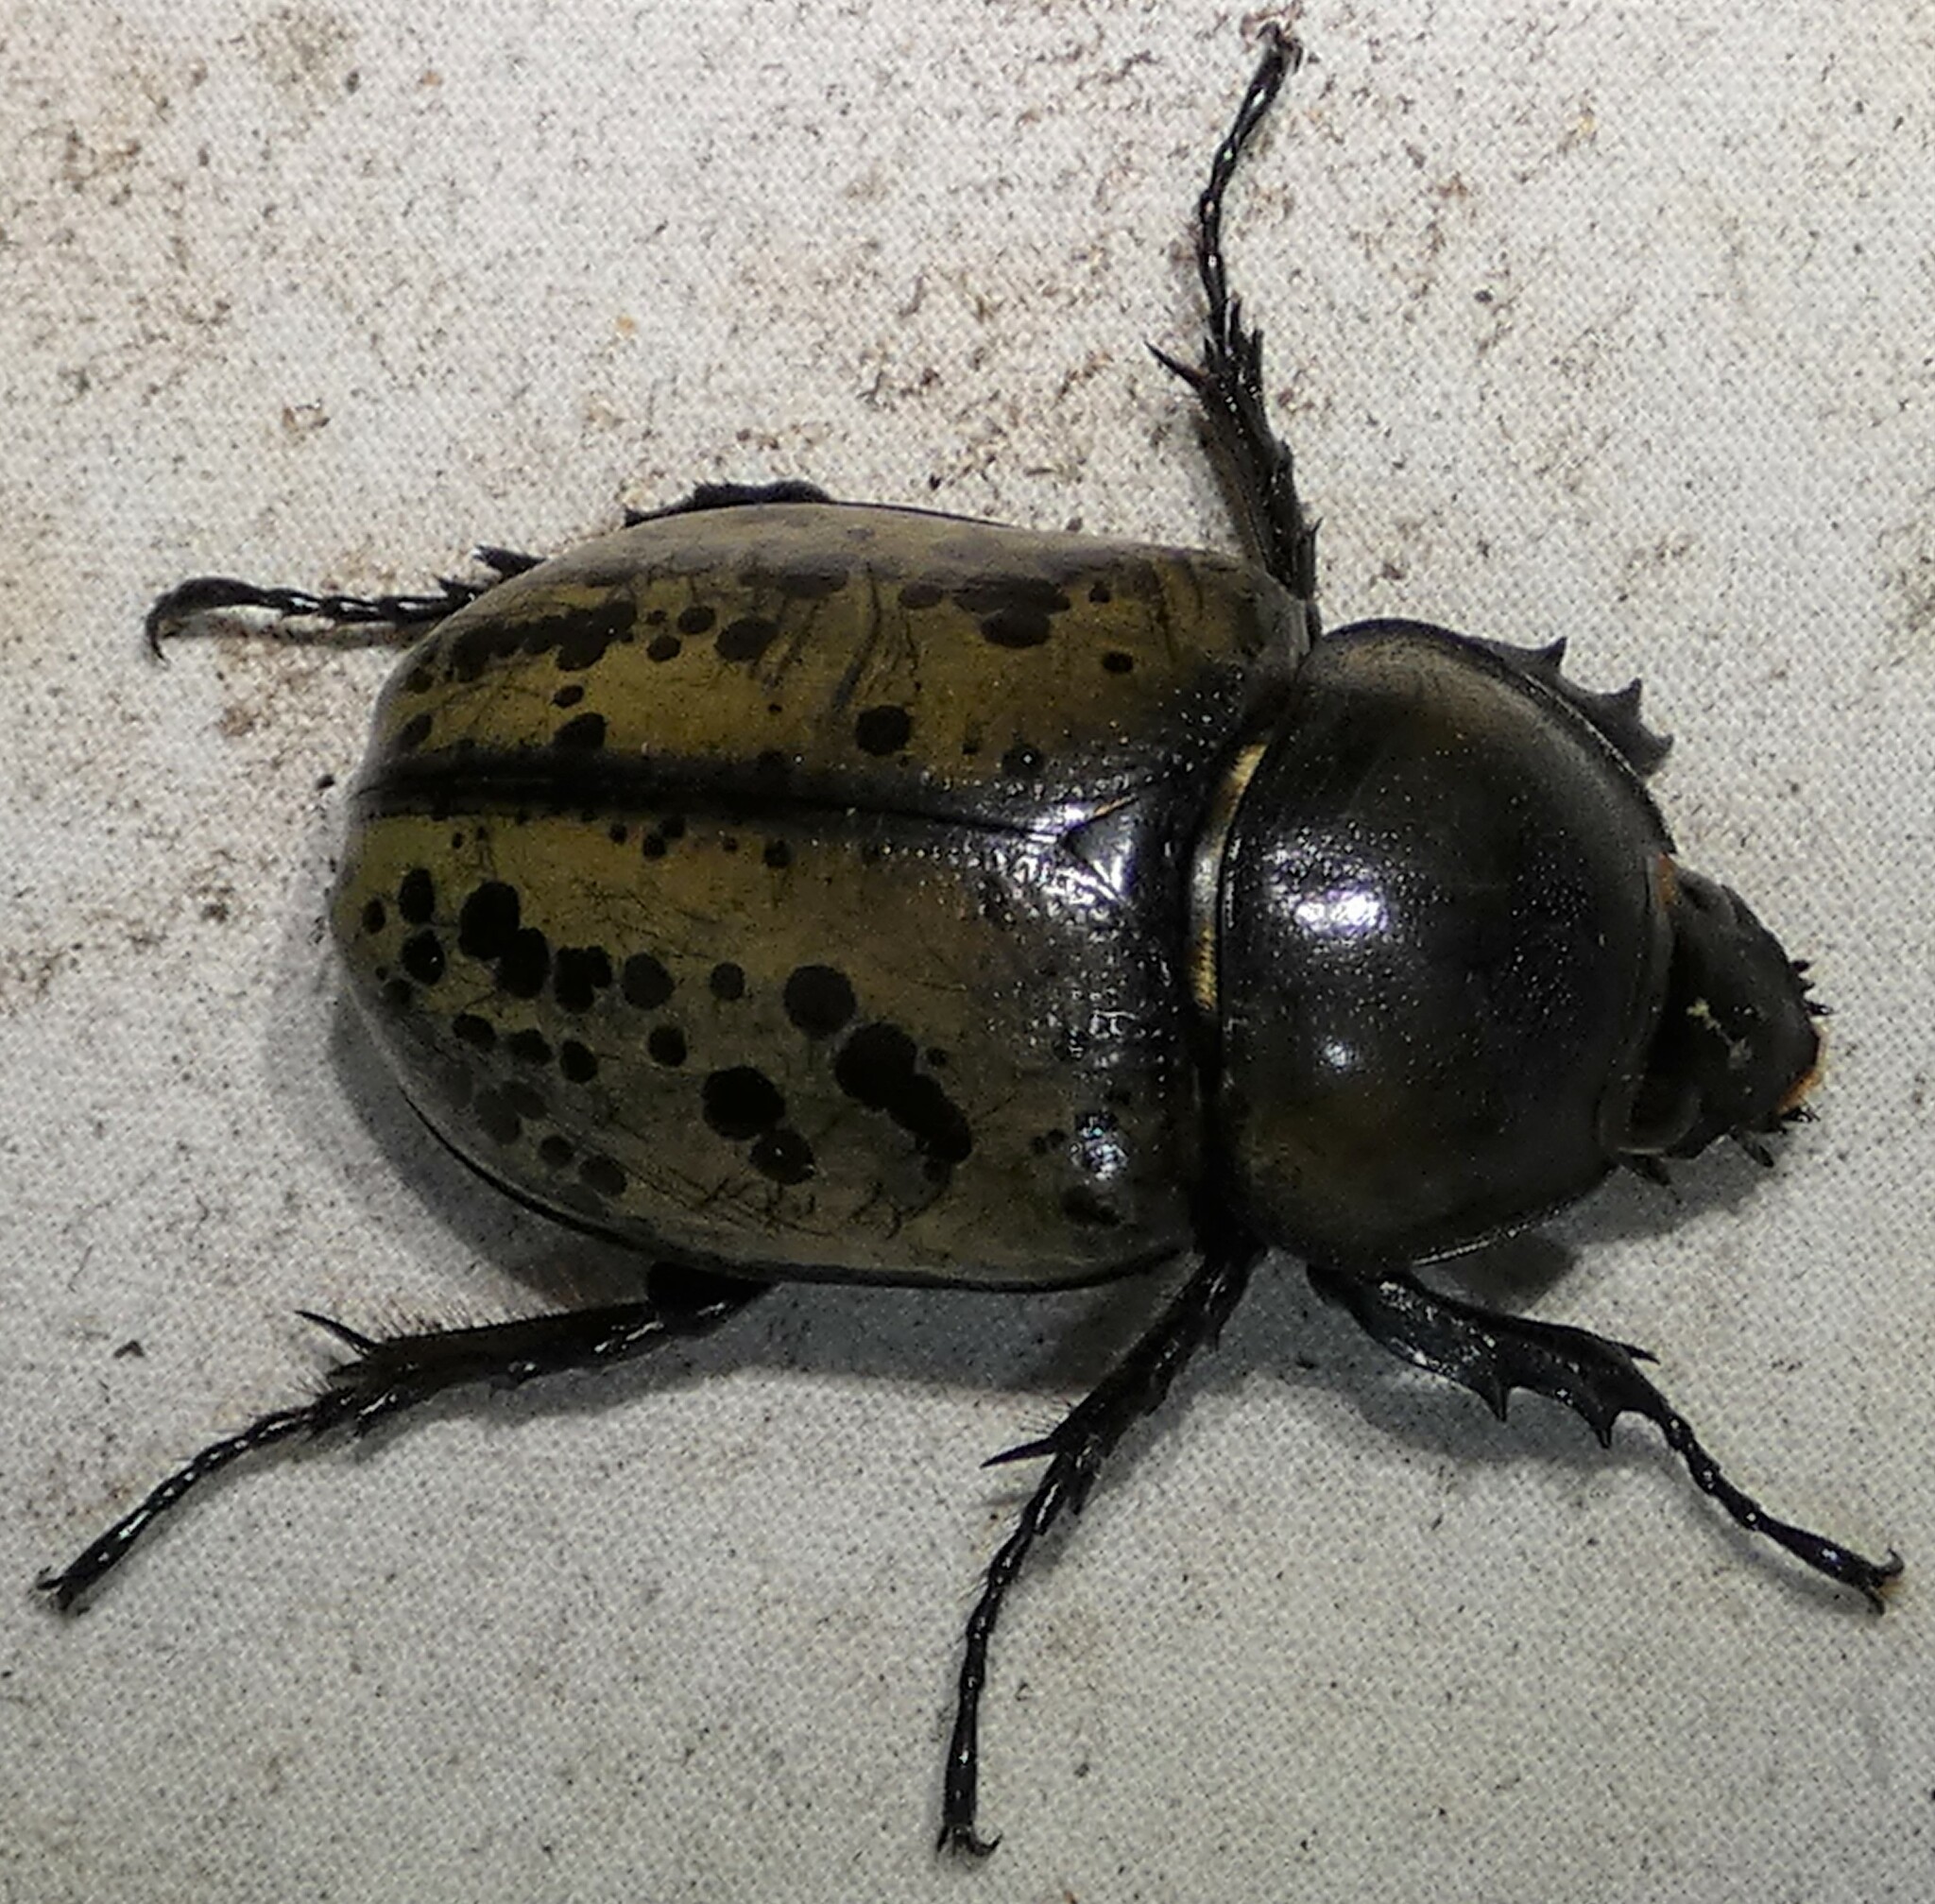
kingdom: Animalia
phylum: Arthropoda
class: Insecta
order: Coleoptera
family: Scarabaeidae
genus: Dynastes
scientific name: Dynastes tityus
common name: Eastern hercules beetle
